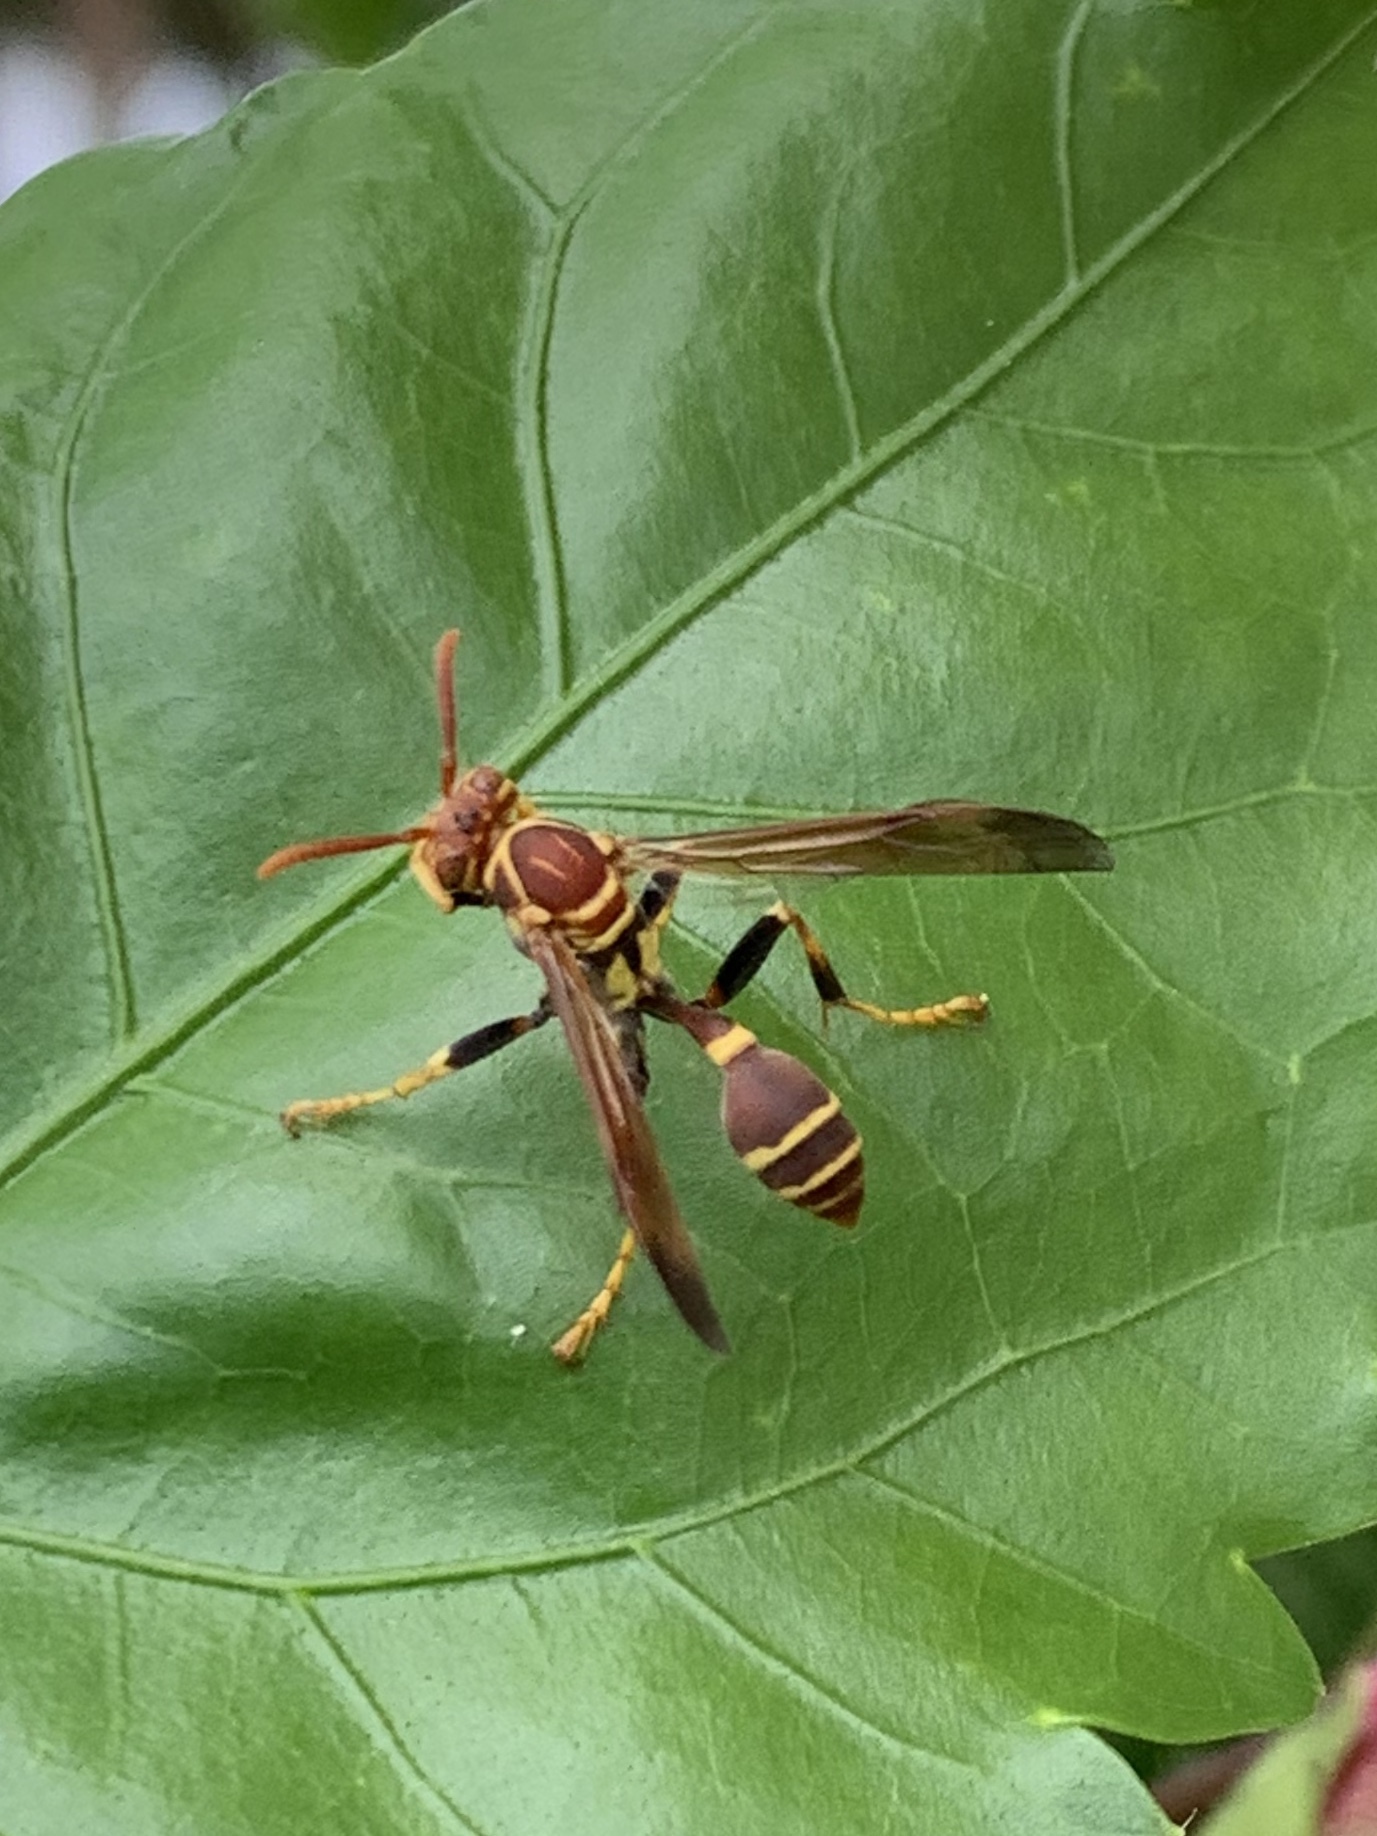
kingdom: Animalia
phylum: Arthropoda
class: Insecta
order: Hymenoptera
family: Vespidae
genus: Mischocyttarus
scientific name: Mischocyttarus mexicanus
